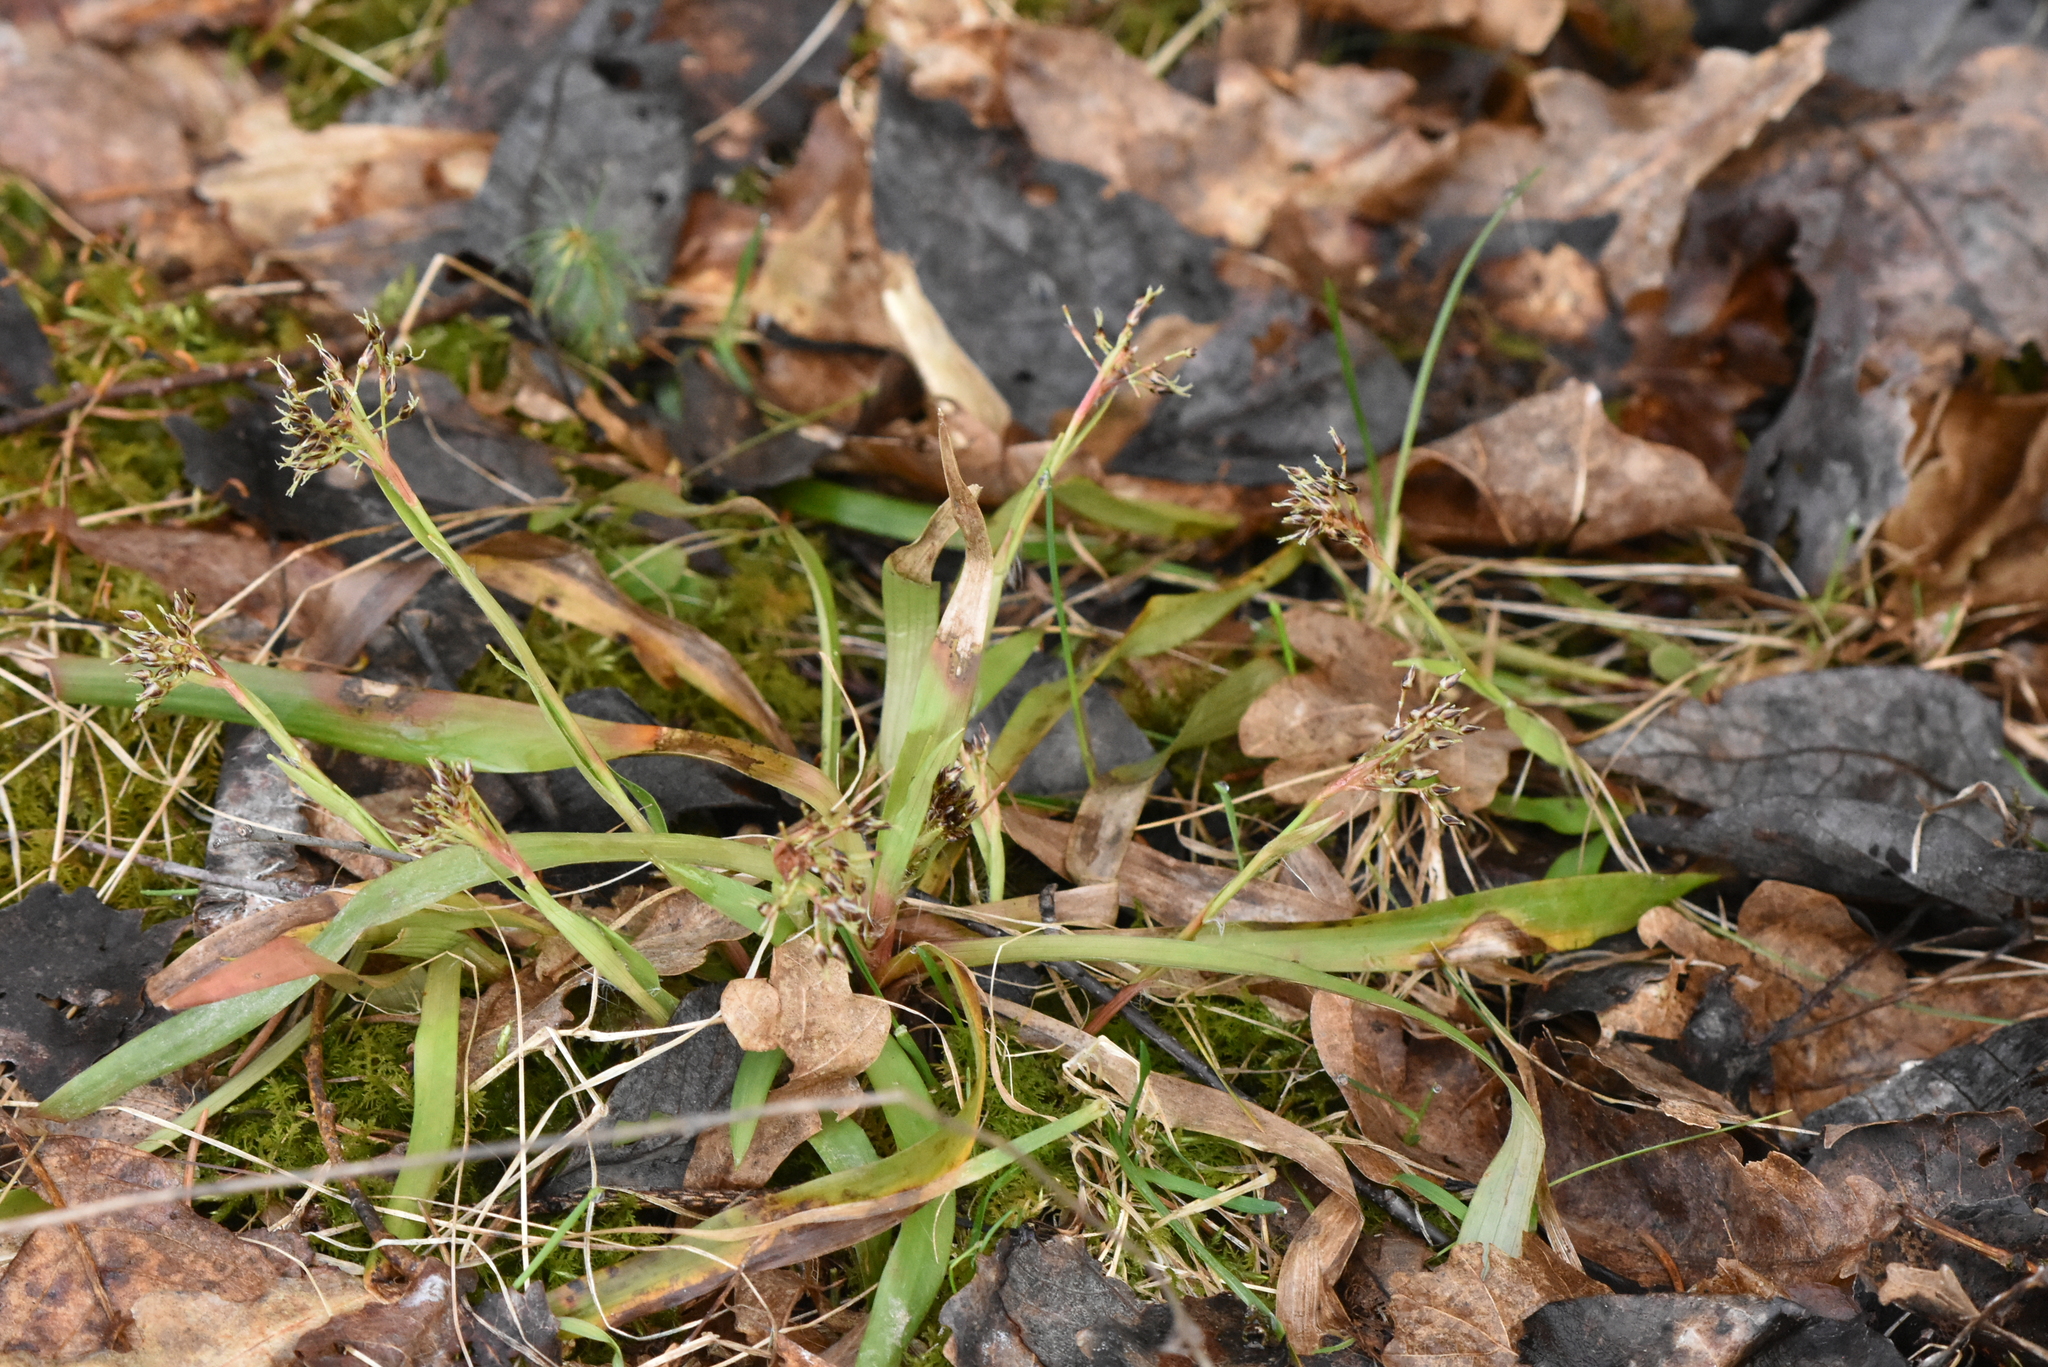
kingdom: Plantae
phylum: Tracheophyta
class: Liliopsida
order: Poales
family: Juncaceae
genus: Luzula
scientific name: Luzula pilosa
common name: Hairy wood-rush
